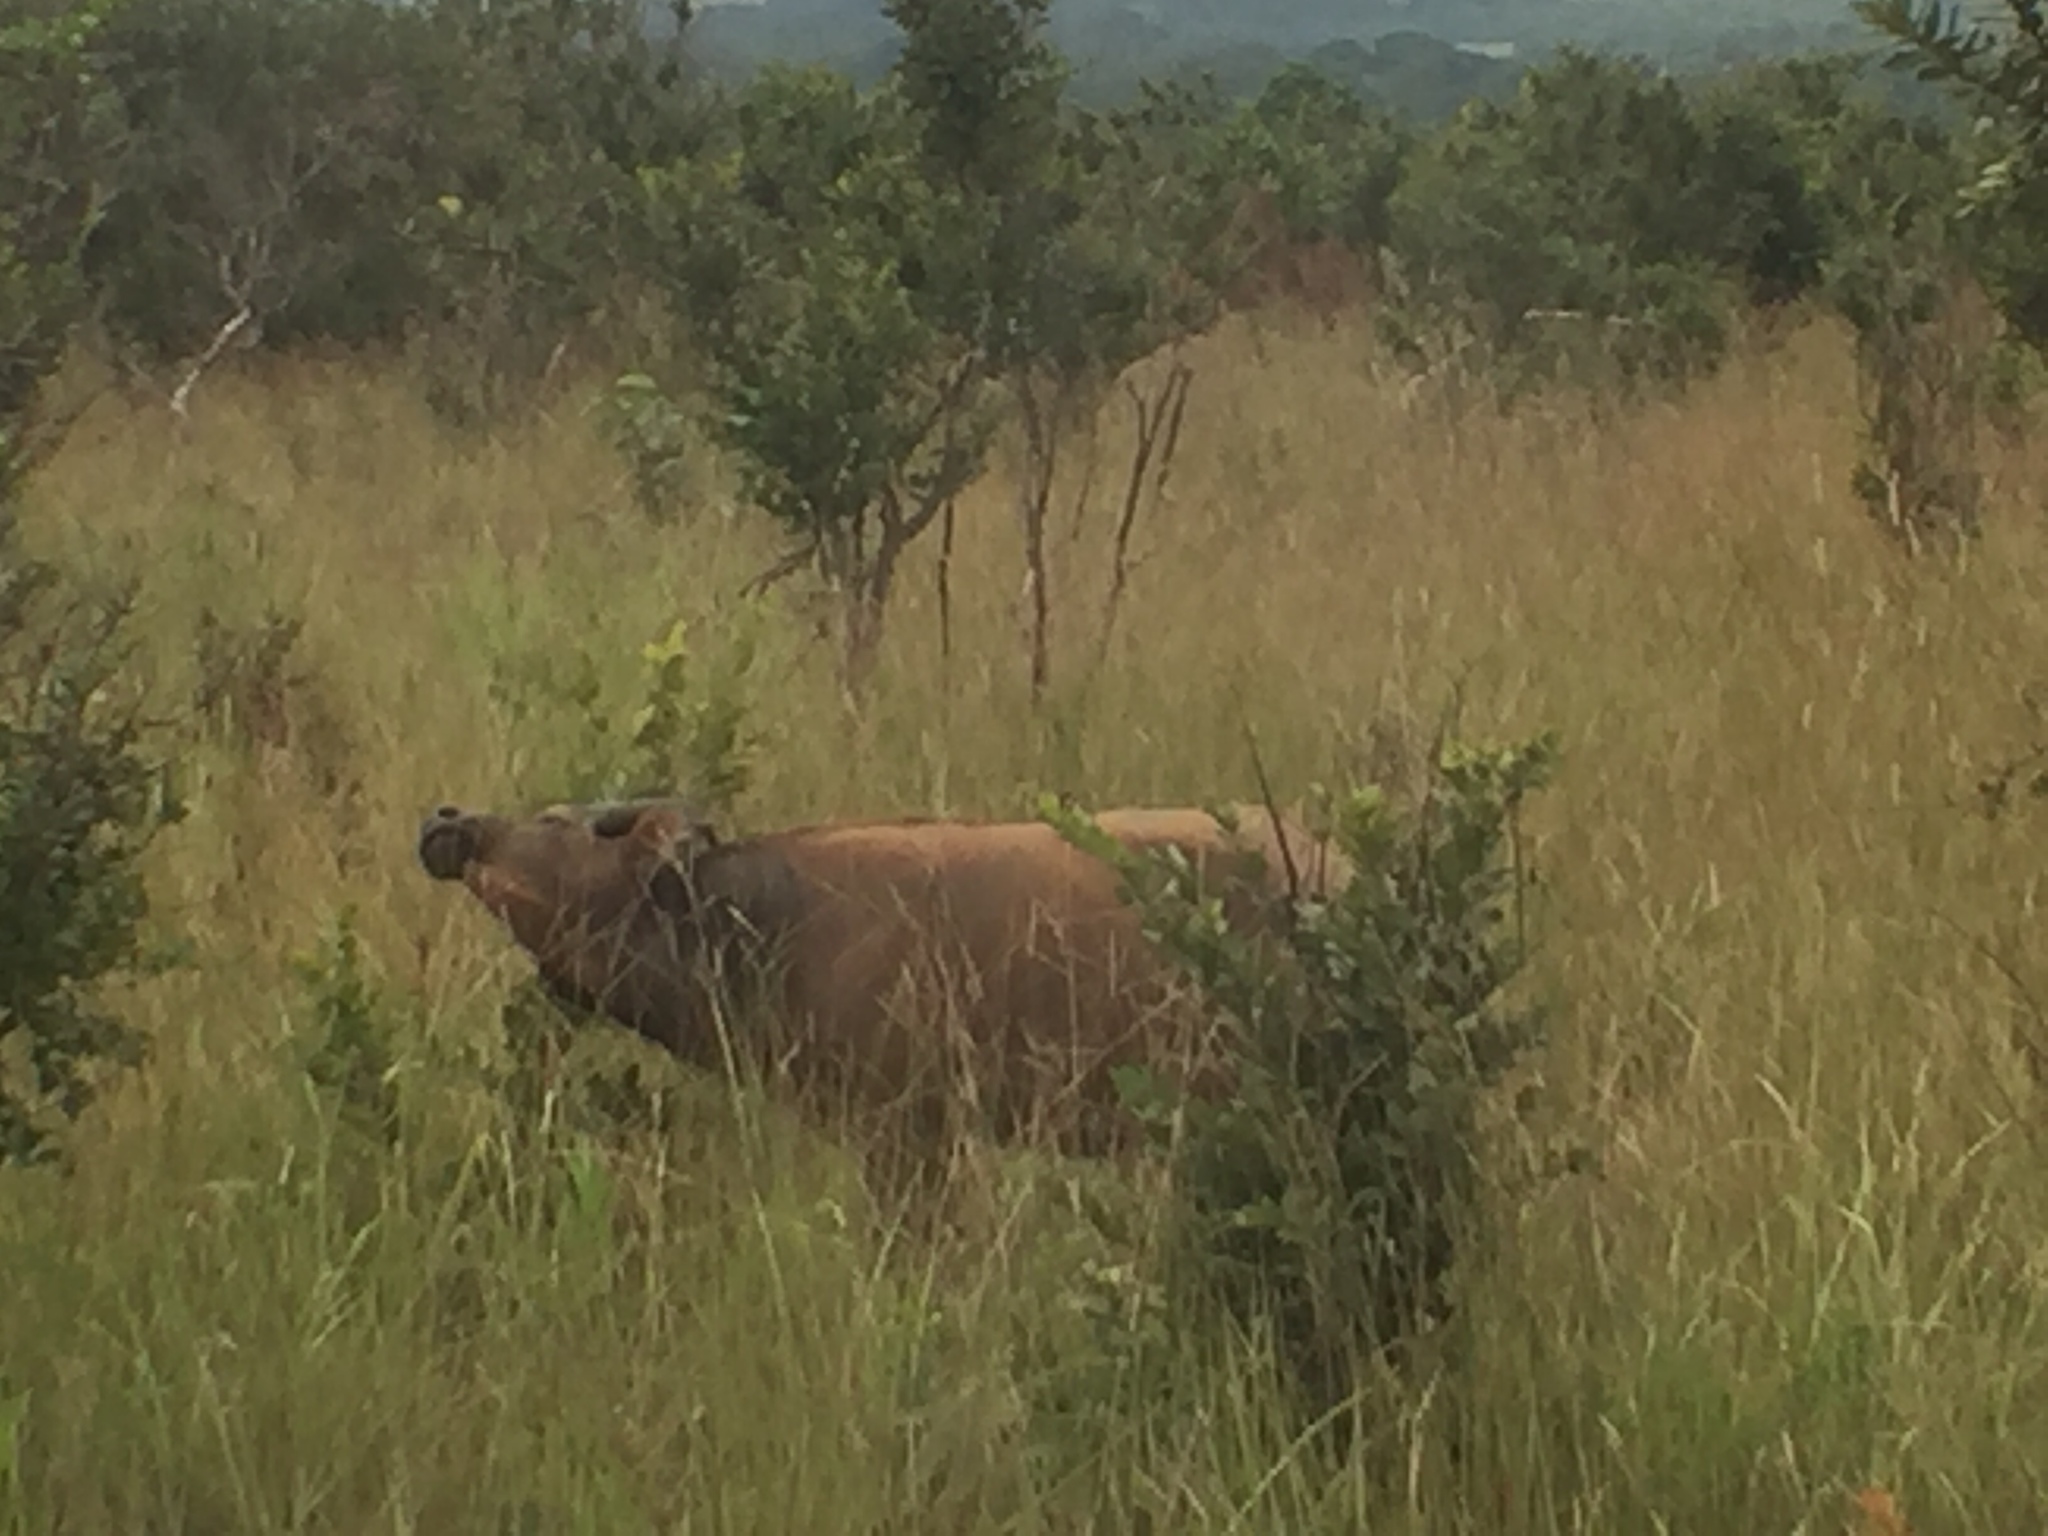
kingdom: Animalia
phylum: Chordata
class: Mammalia
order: Artiodactyla
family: Bovidae
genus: Syncerus
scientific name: Syncerus caffer
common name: African buffalo
